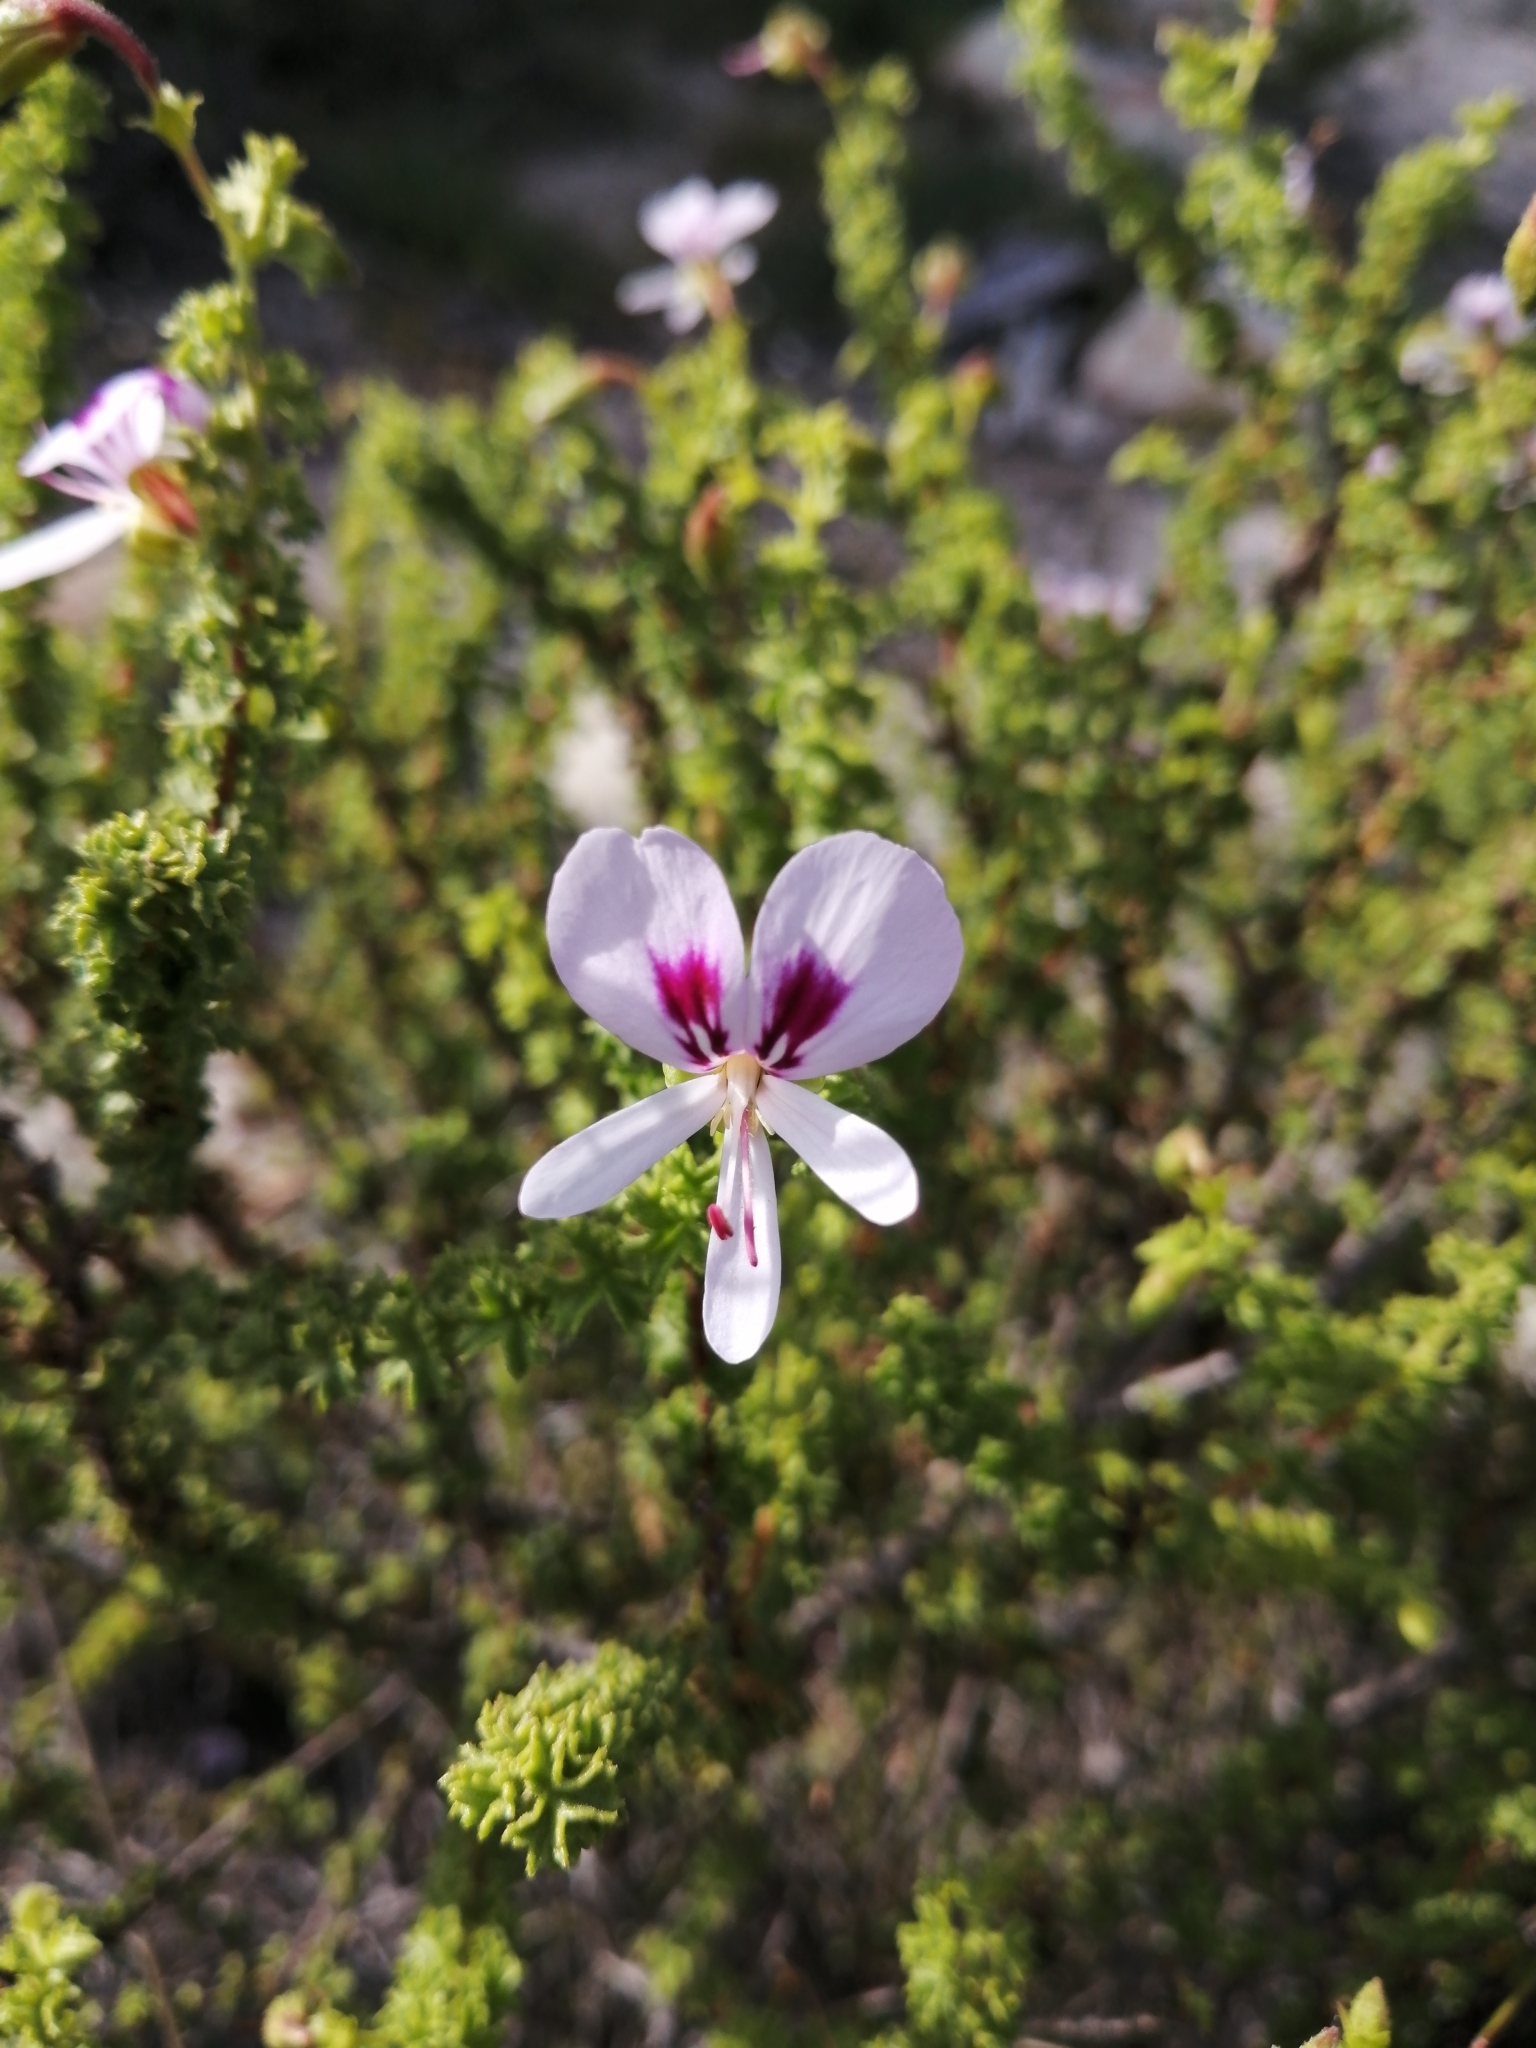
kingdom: Plantae
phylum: Tracheophyta
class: Magnoliopsida
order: Geraniales
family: Geraniaceae
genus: Pelargonium
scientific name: Pelargonium crispum
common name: Crisped-leaf pelargonium
